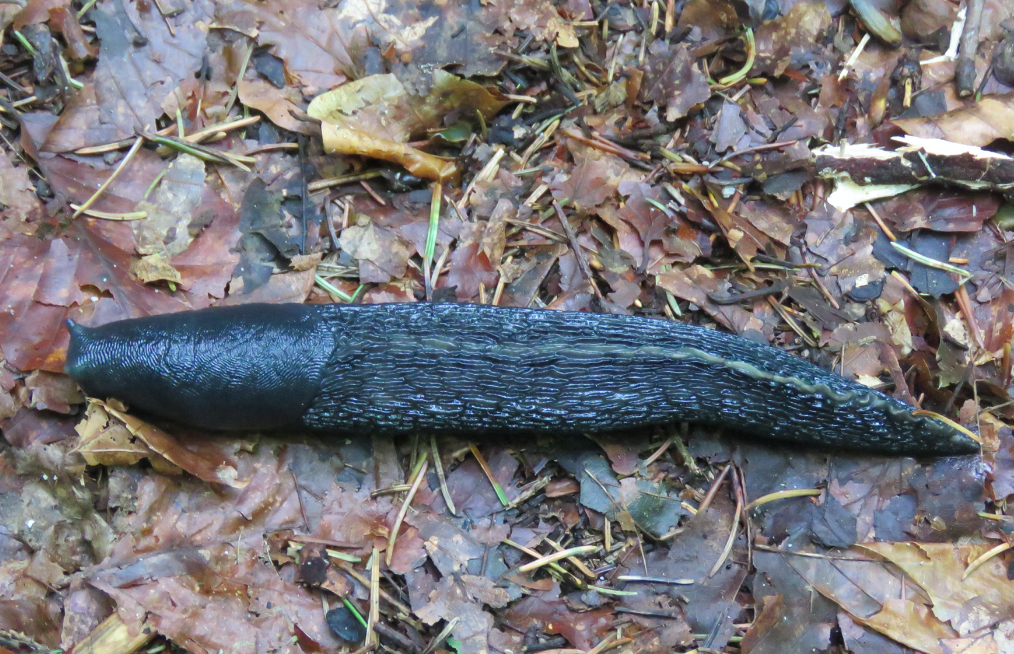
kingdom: Animalia
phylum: Mollusca
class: Gastropoda
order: Stylommatophora
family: Limacidae
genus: Limax
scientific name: Limax cinereoniger
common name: Ash-black slug
